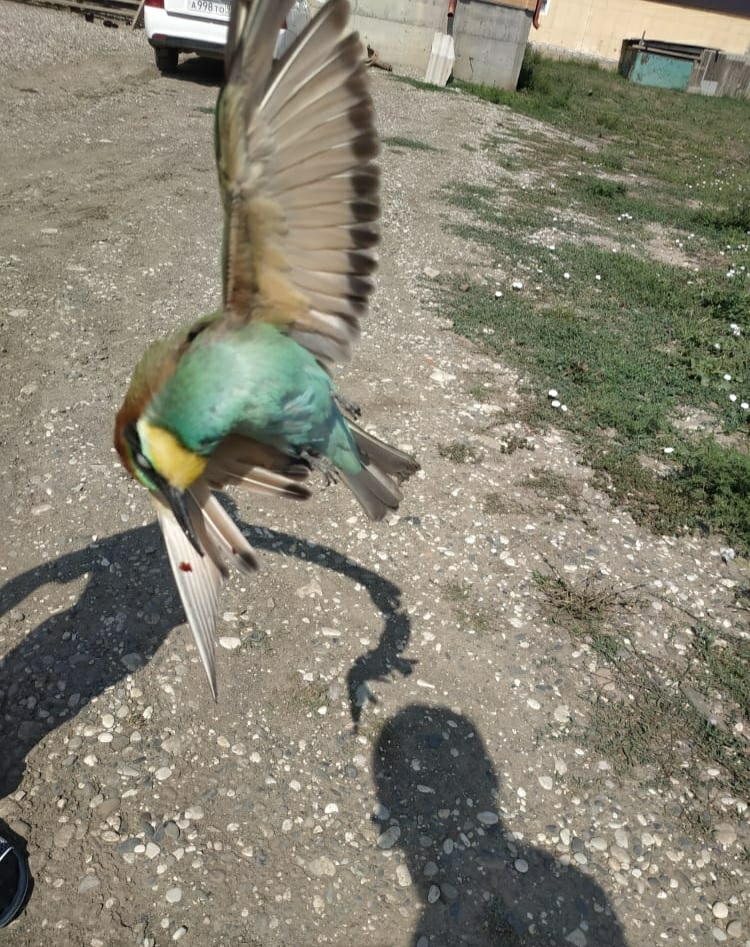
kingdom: Animalia
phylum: Chordata
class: Aves
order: Coraciiformes
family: Meropidae
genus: Merops
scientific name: Merops apiaster
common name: European bee-eater
